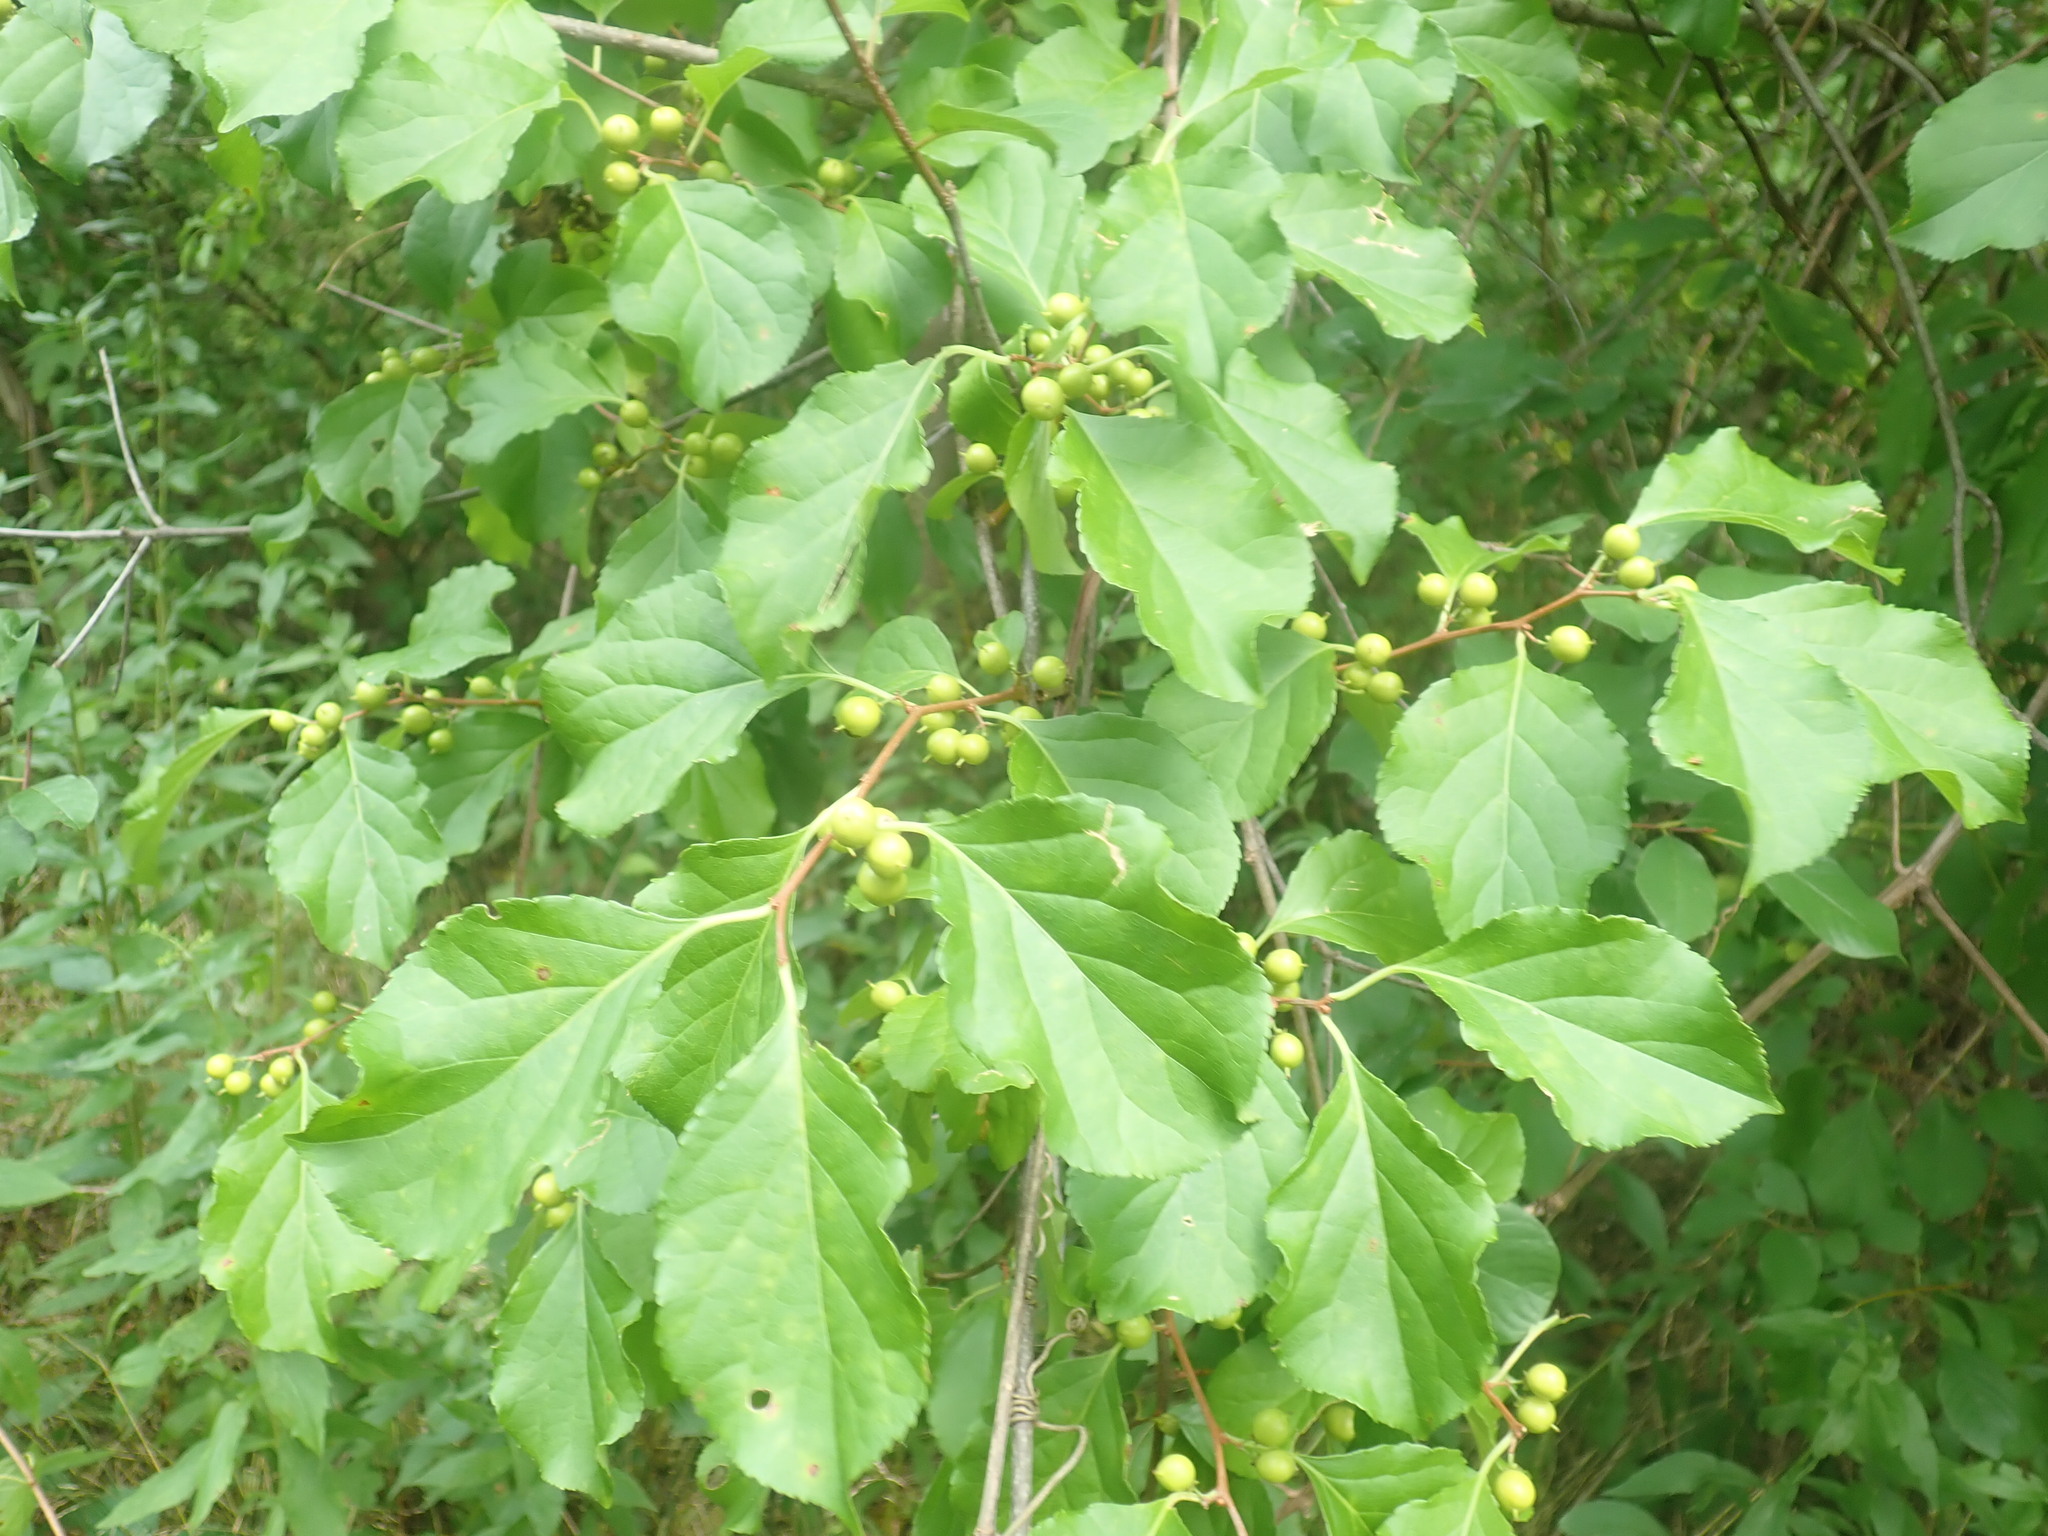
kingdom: Plantae
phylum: Tracheophyta
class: Magnoliopsida
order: Celastrales
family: Celastraceae
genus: Celastrus
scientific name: Celastrus orbiculatus
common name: Oriental bittersweet
